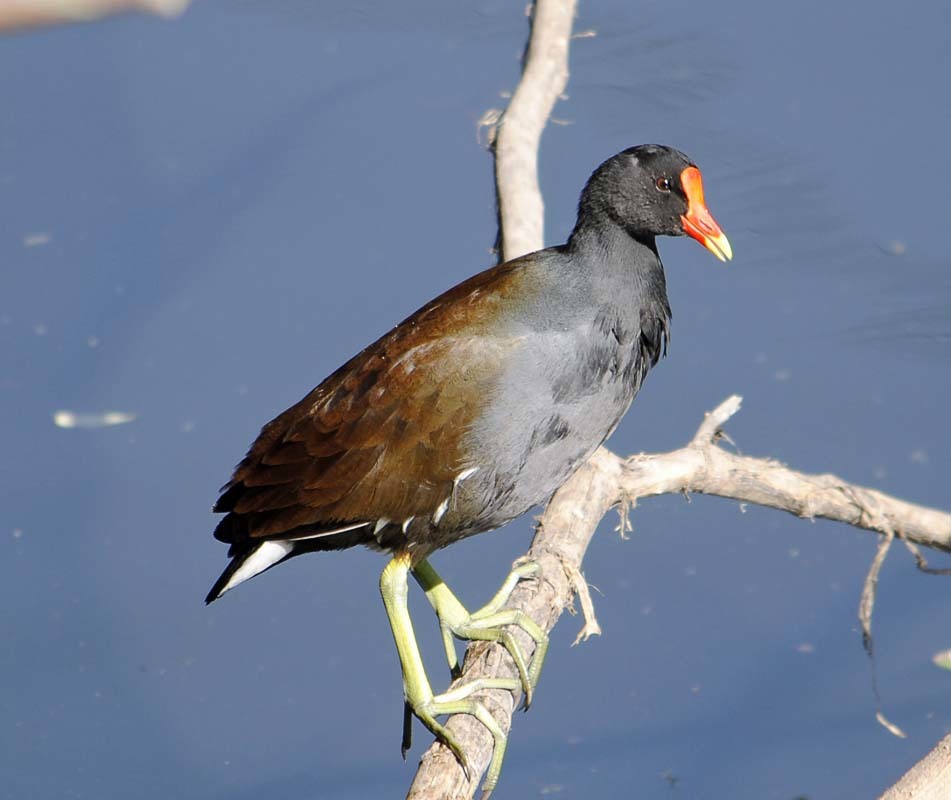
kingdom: Animalia
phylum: Chordata
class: Aves
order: Gruiformes
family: Rallidae
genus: Gallinula
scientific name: Gallinula chloropus
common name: Common moorhen
